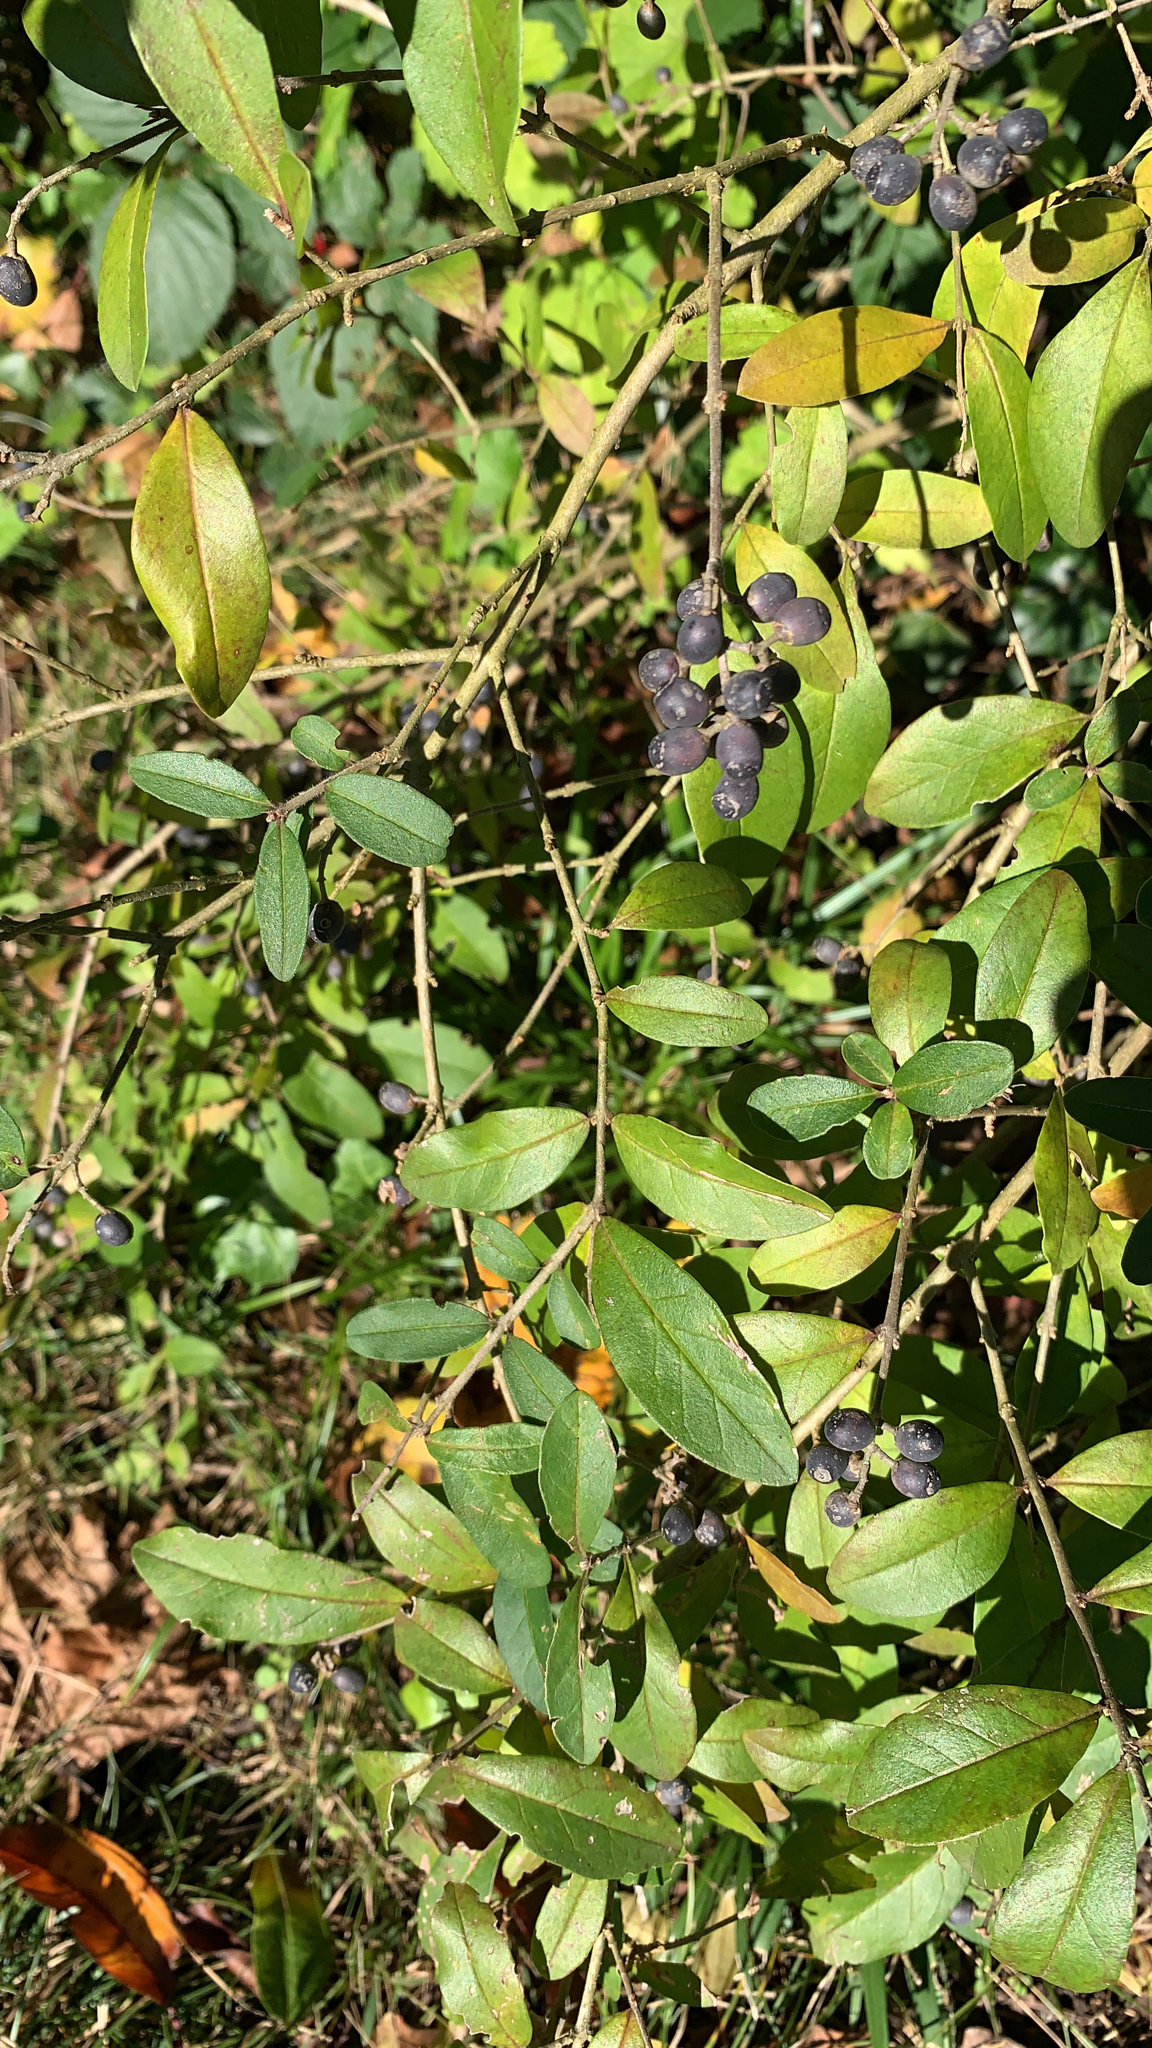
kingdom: Plantae
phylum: Tracheophyta
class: Magnoliopsida
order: Lamiales
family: Oleaceae
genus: Ligustrum
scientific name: Ligustrum obtusifolium
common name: Border privet
